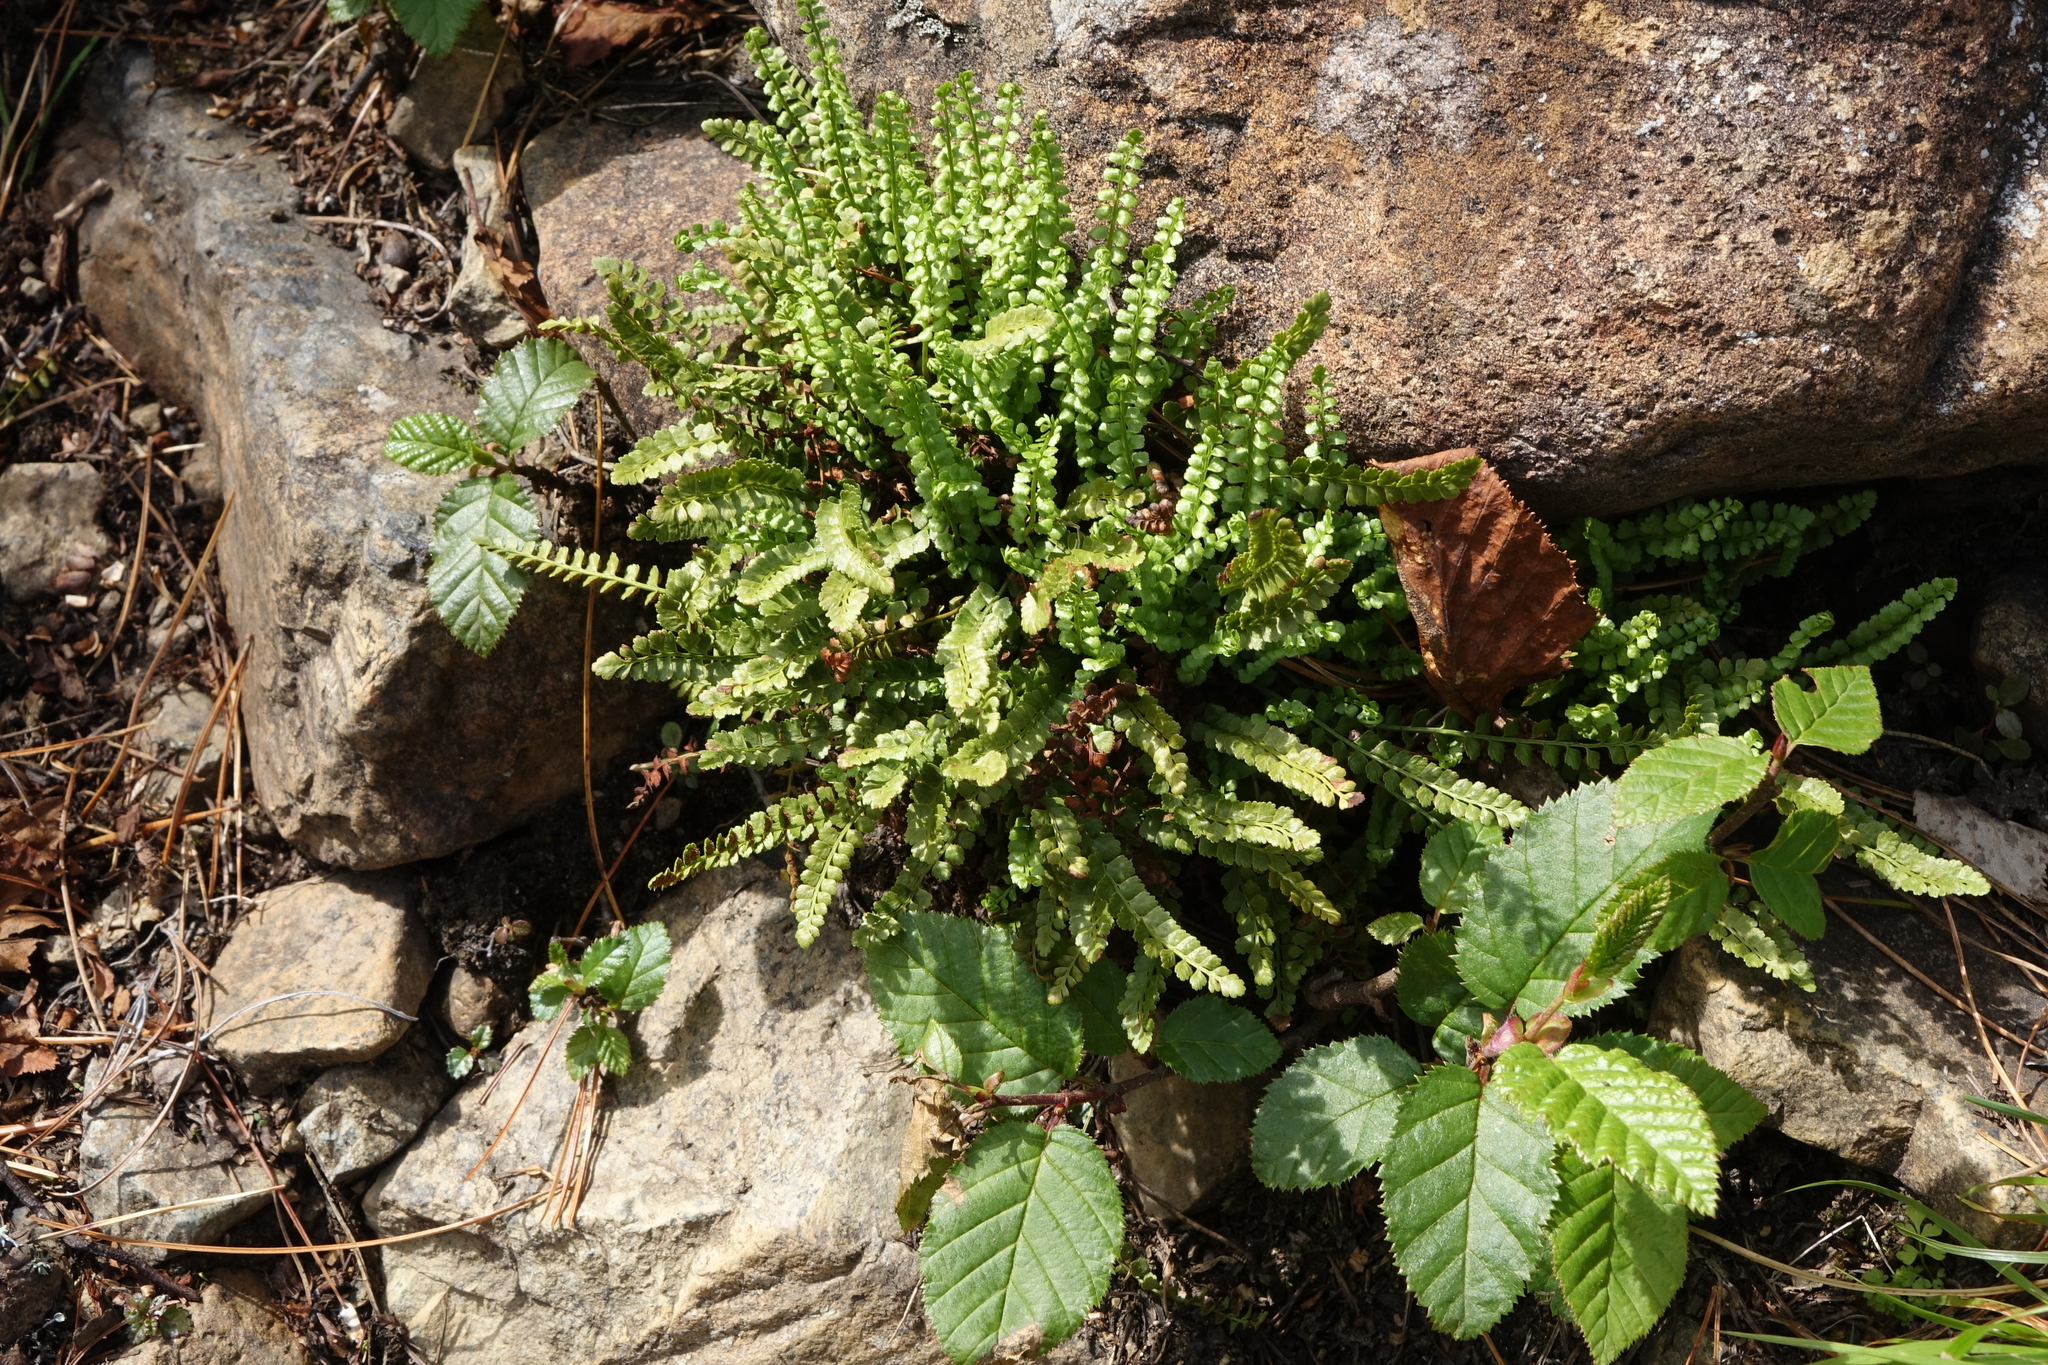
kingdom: Plantae
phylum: Tracheophyta
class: Magnoliopsida
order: Fagales
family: Betulaceae
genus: Alnus
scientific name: Alnus alnobetula
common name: Green alder
